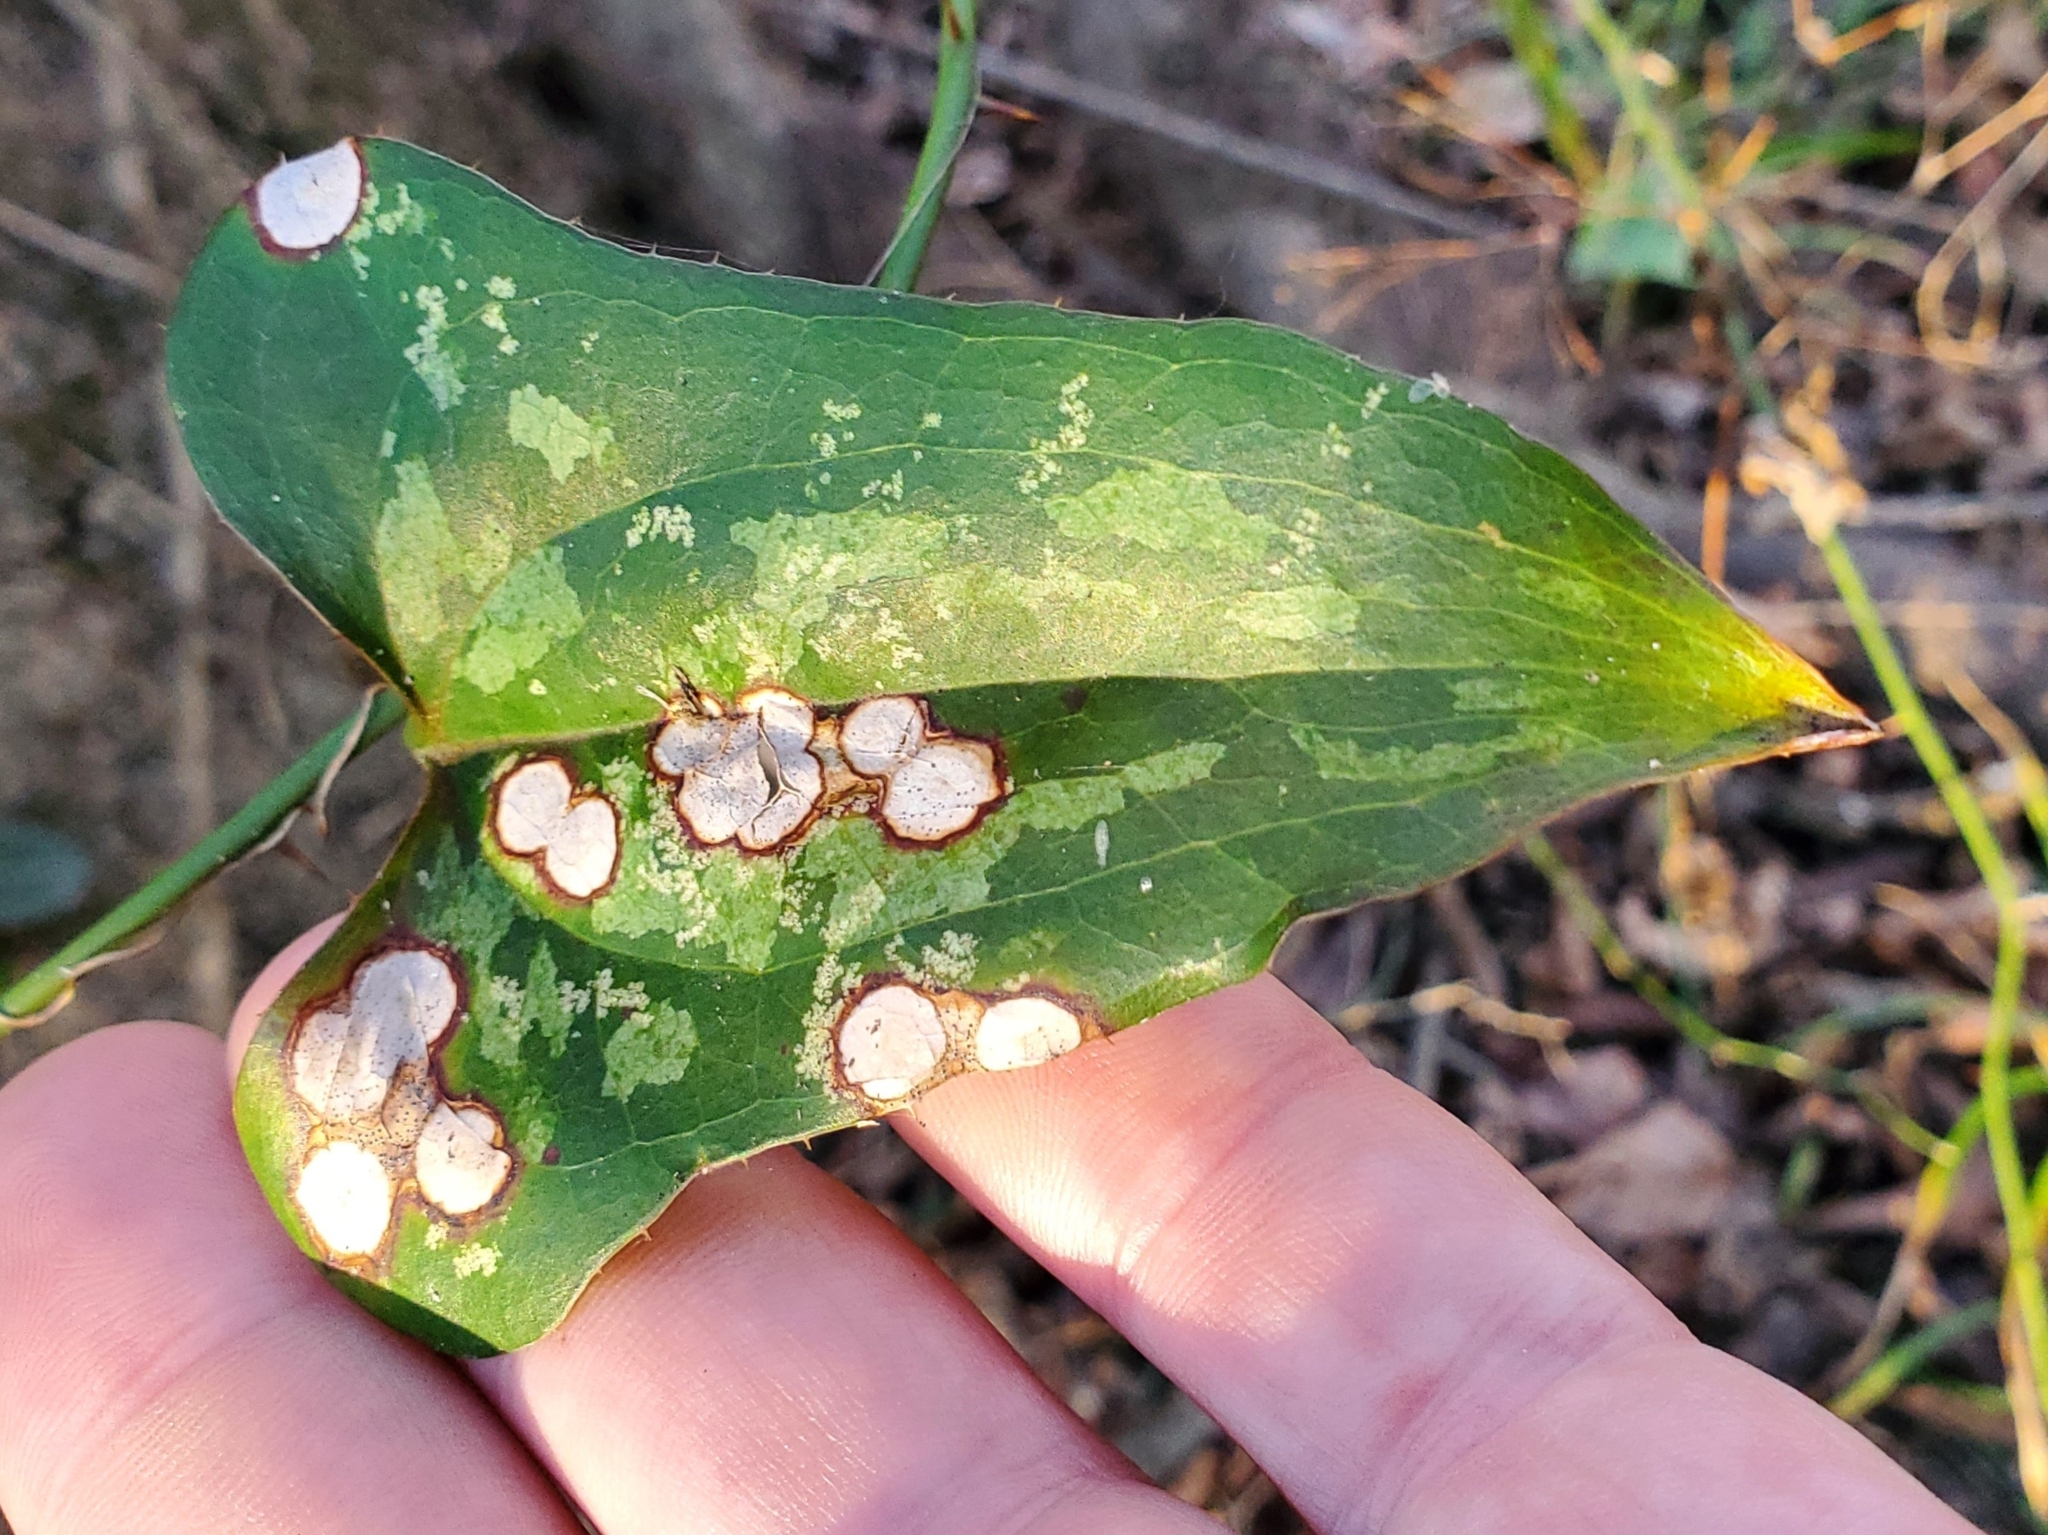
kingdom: Plantae
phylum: Tracheophyta
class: Liliopsida
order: Liliales
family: Smilacaceae
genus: Smilax
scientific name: Smilax bona-nox
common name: Catbrier
